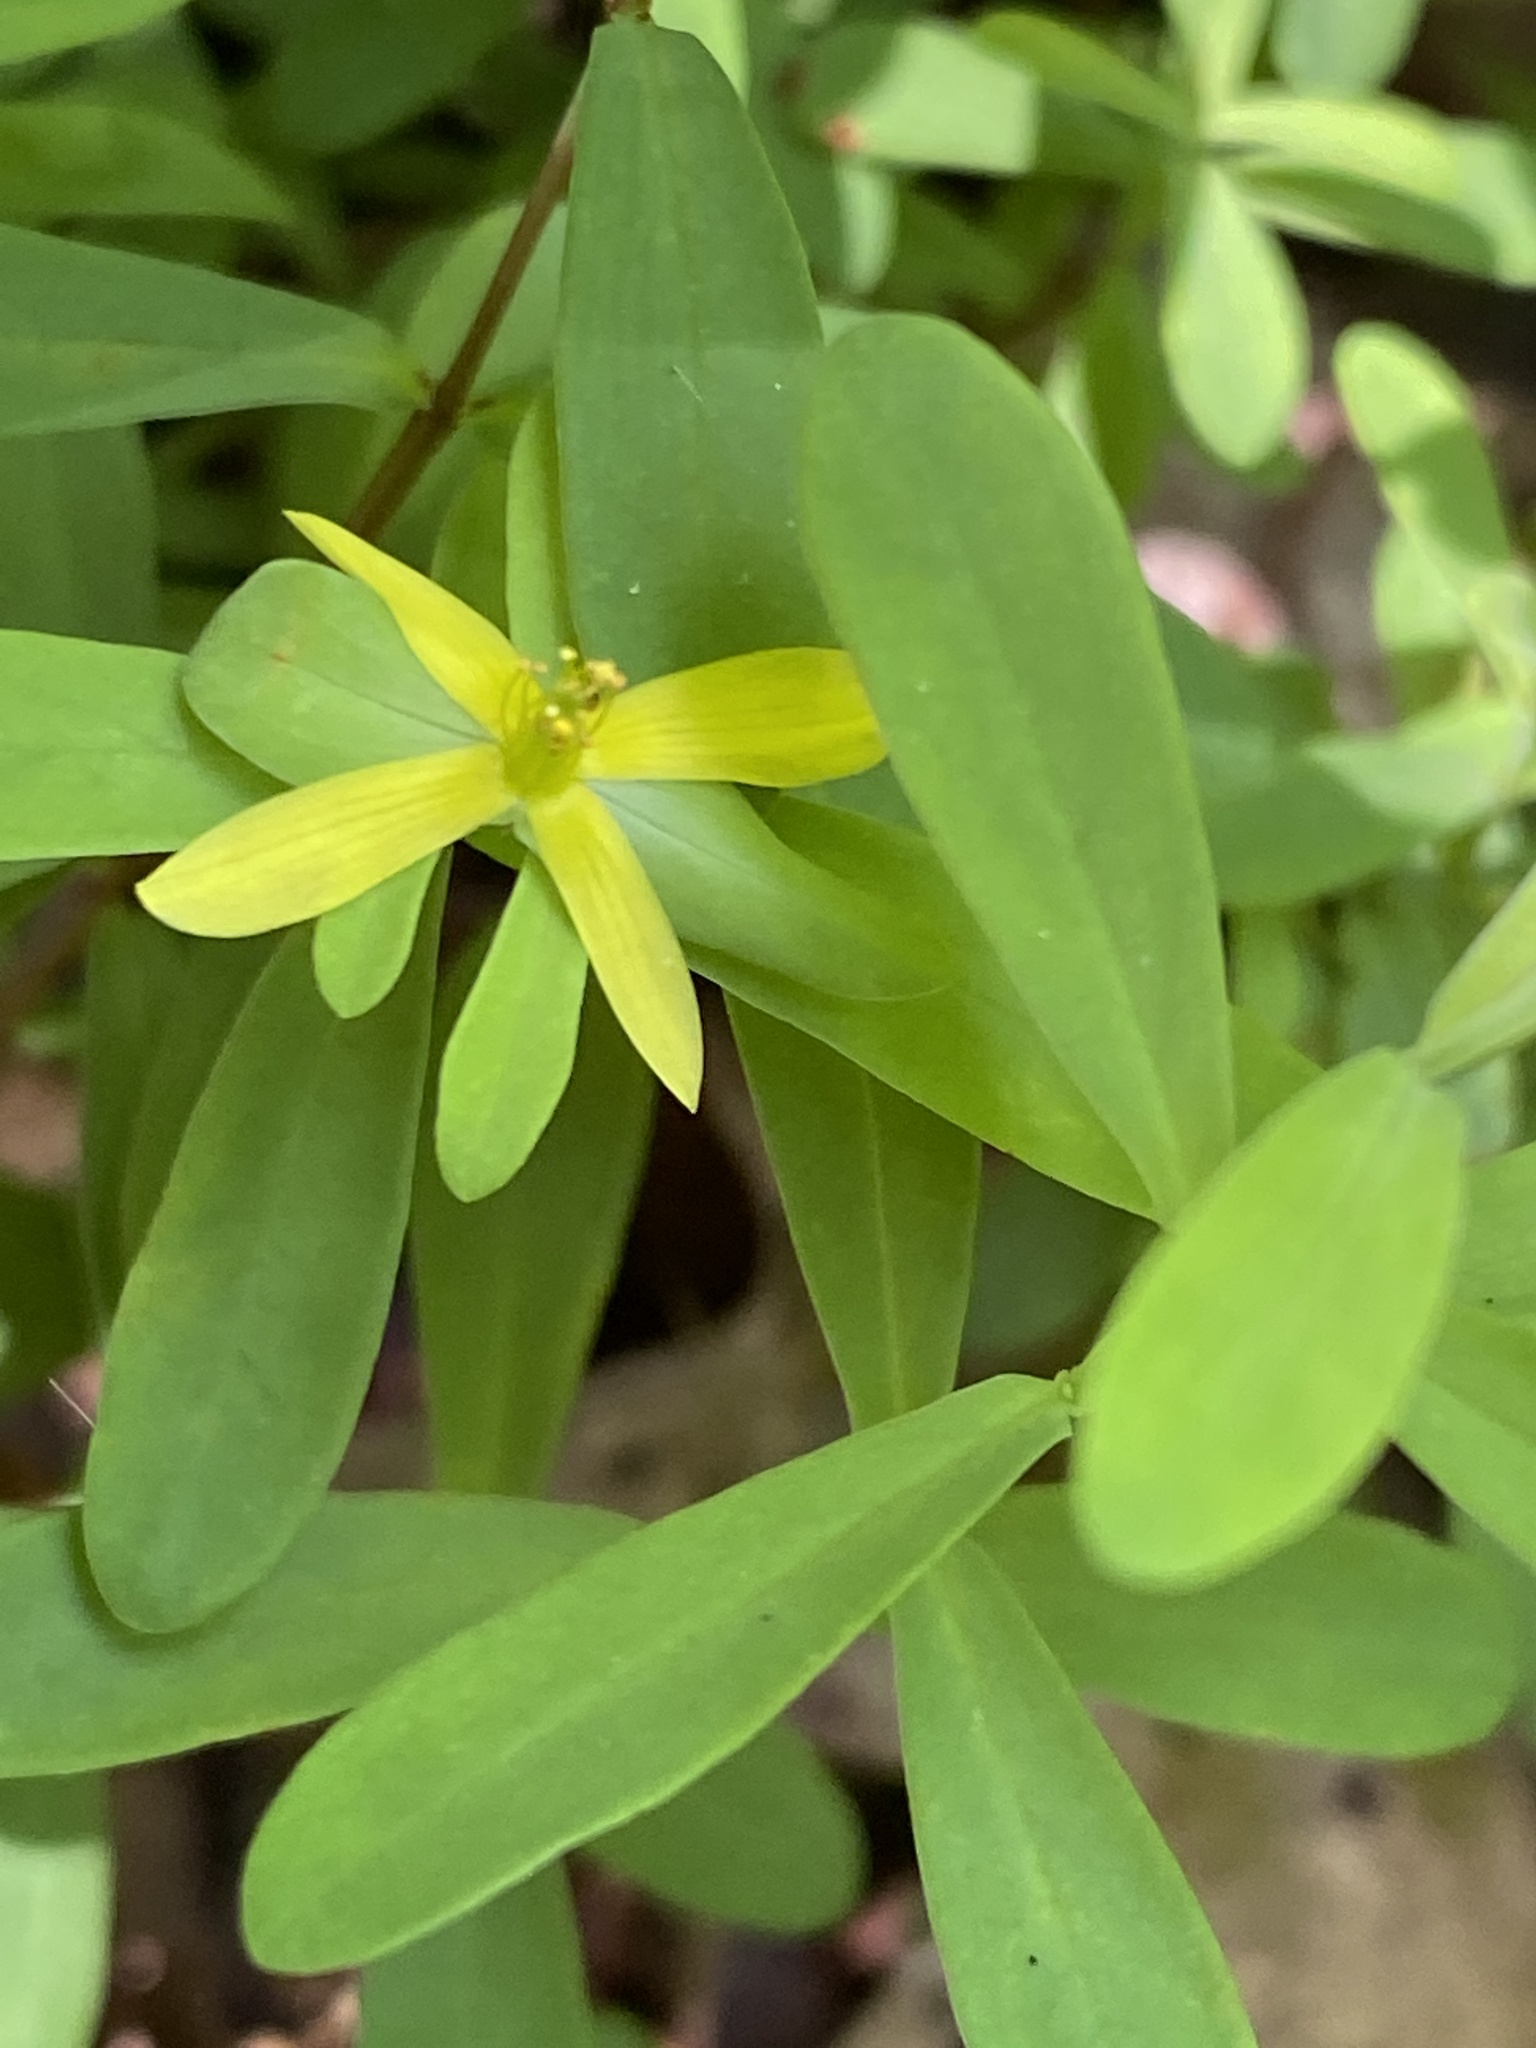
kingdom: Plantae
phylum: Tracheophyta
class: Magnoliopsida
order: Malpighiales
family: Hypericaceae
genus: Hypericum
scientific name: Hypericum hypericoides
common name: St. andrew's cross
